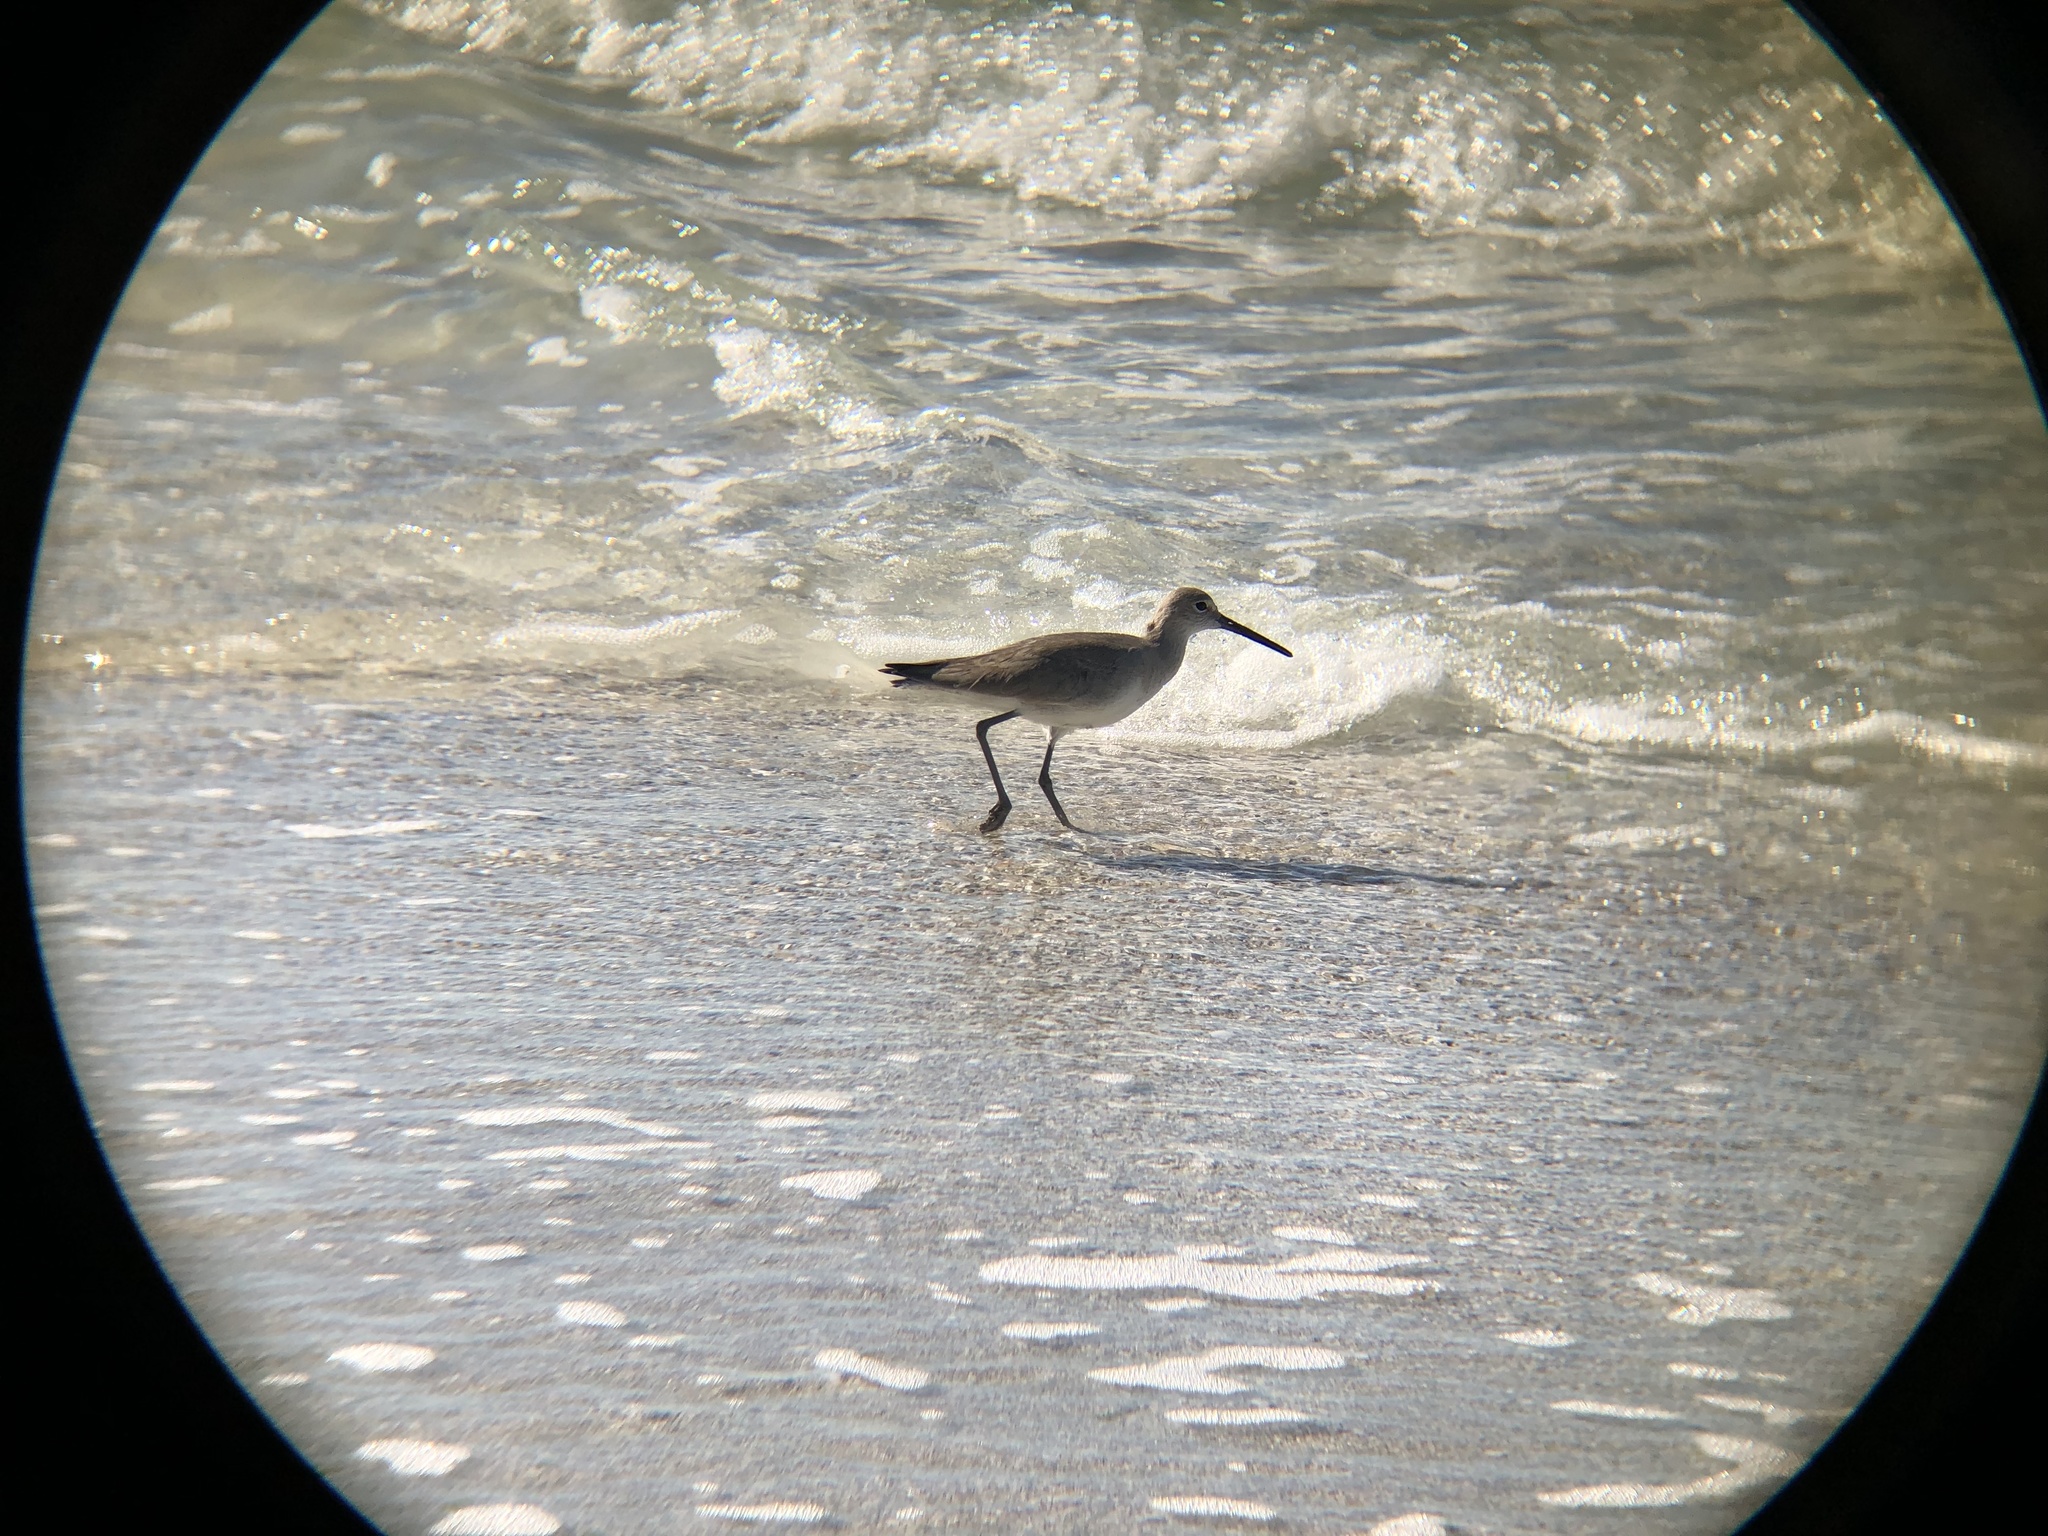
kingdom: Animalia
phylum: Chordata
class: Aves
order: Charadriiformes
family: Scolopacidae
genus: Tringa
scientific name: Tringa semipalmata
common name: Willet
